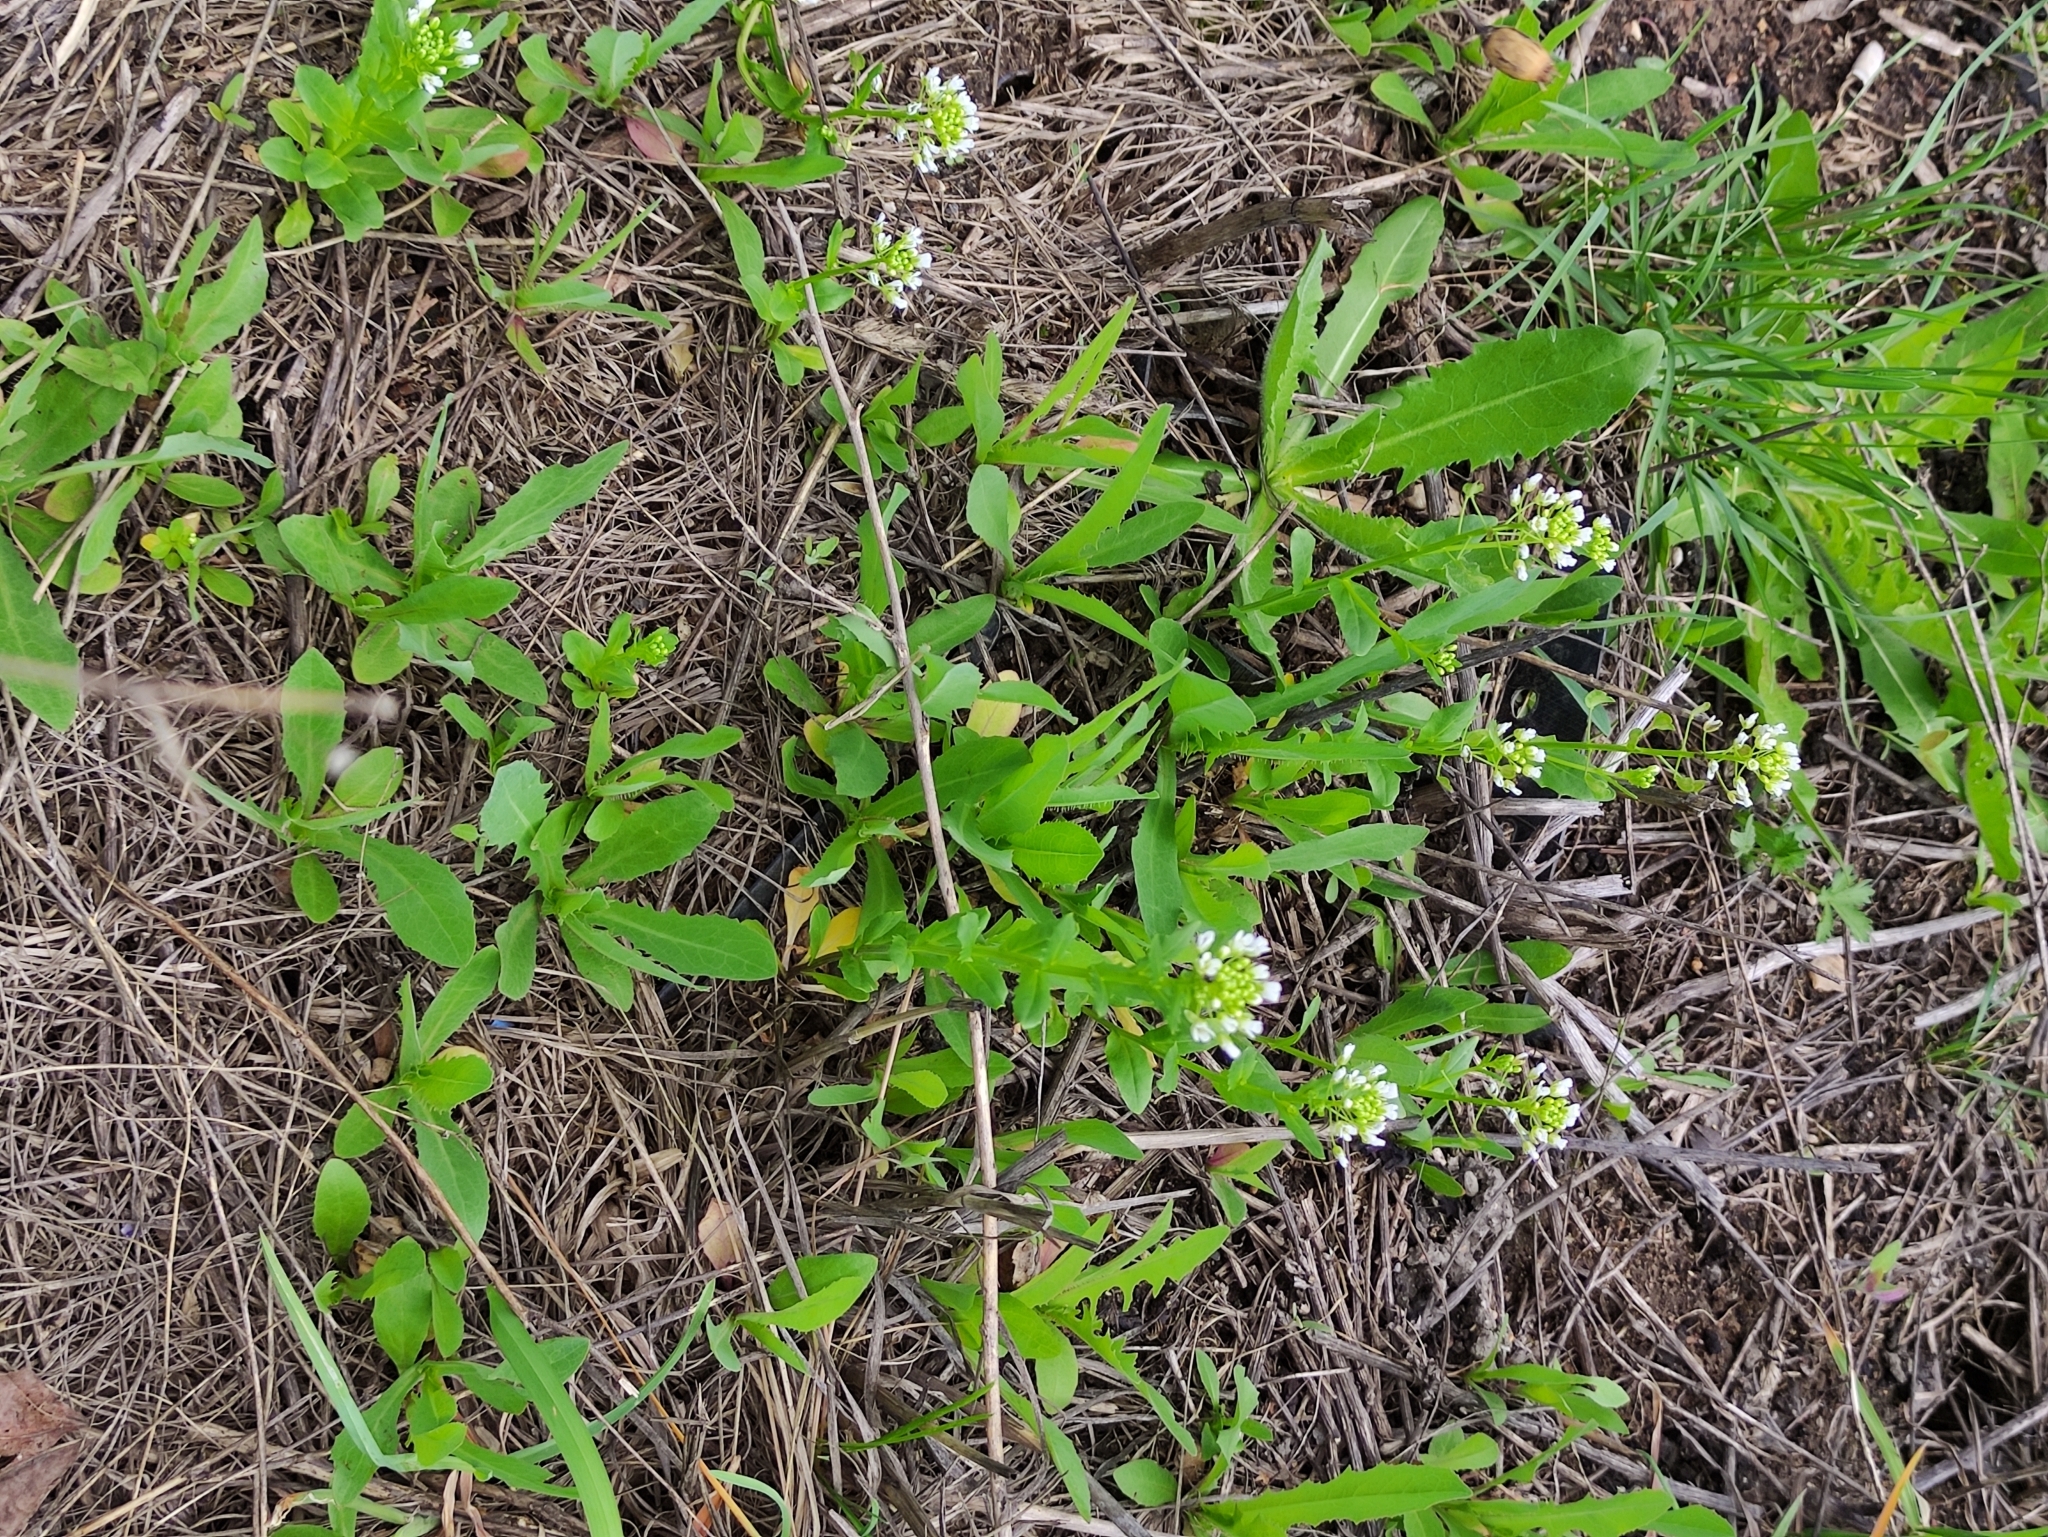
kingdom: Plantae
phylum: Tracheophyta
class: Magnoliopsida
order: Brassicales
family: Brassicaceae
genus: Thlaspi
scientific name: Thlaspi arvense
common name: Field pennycress
